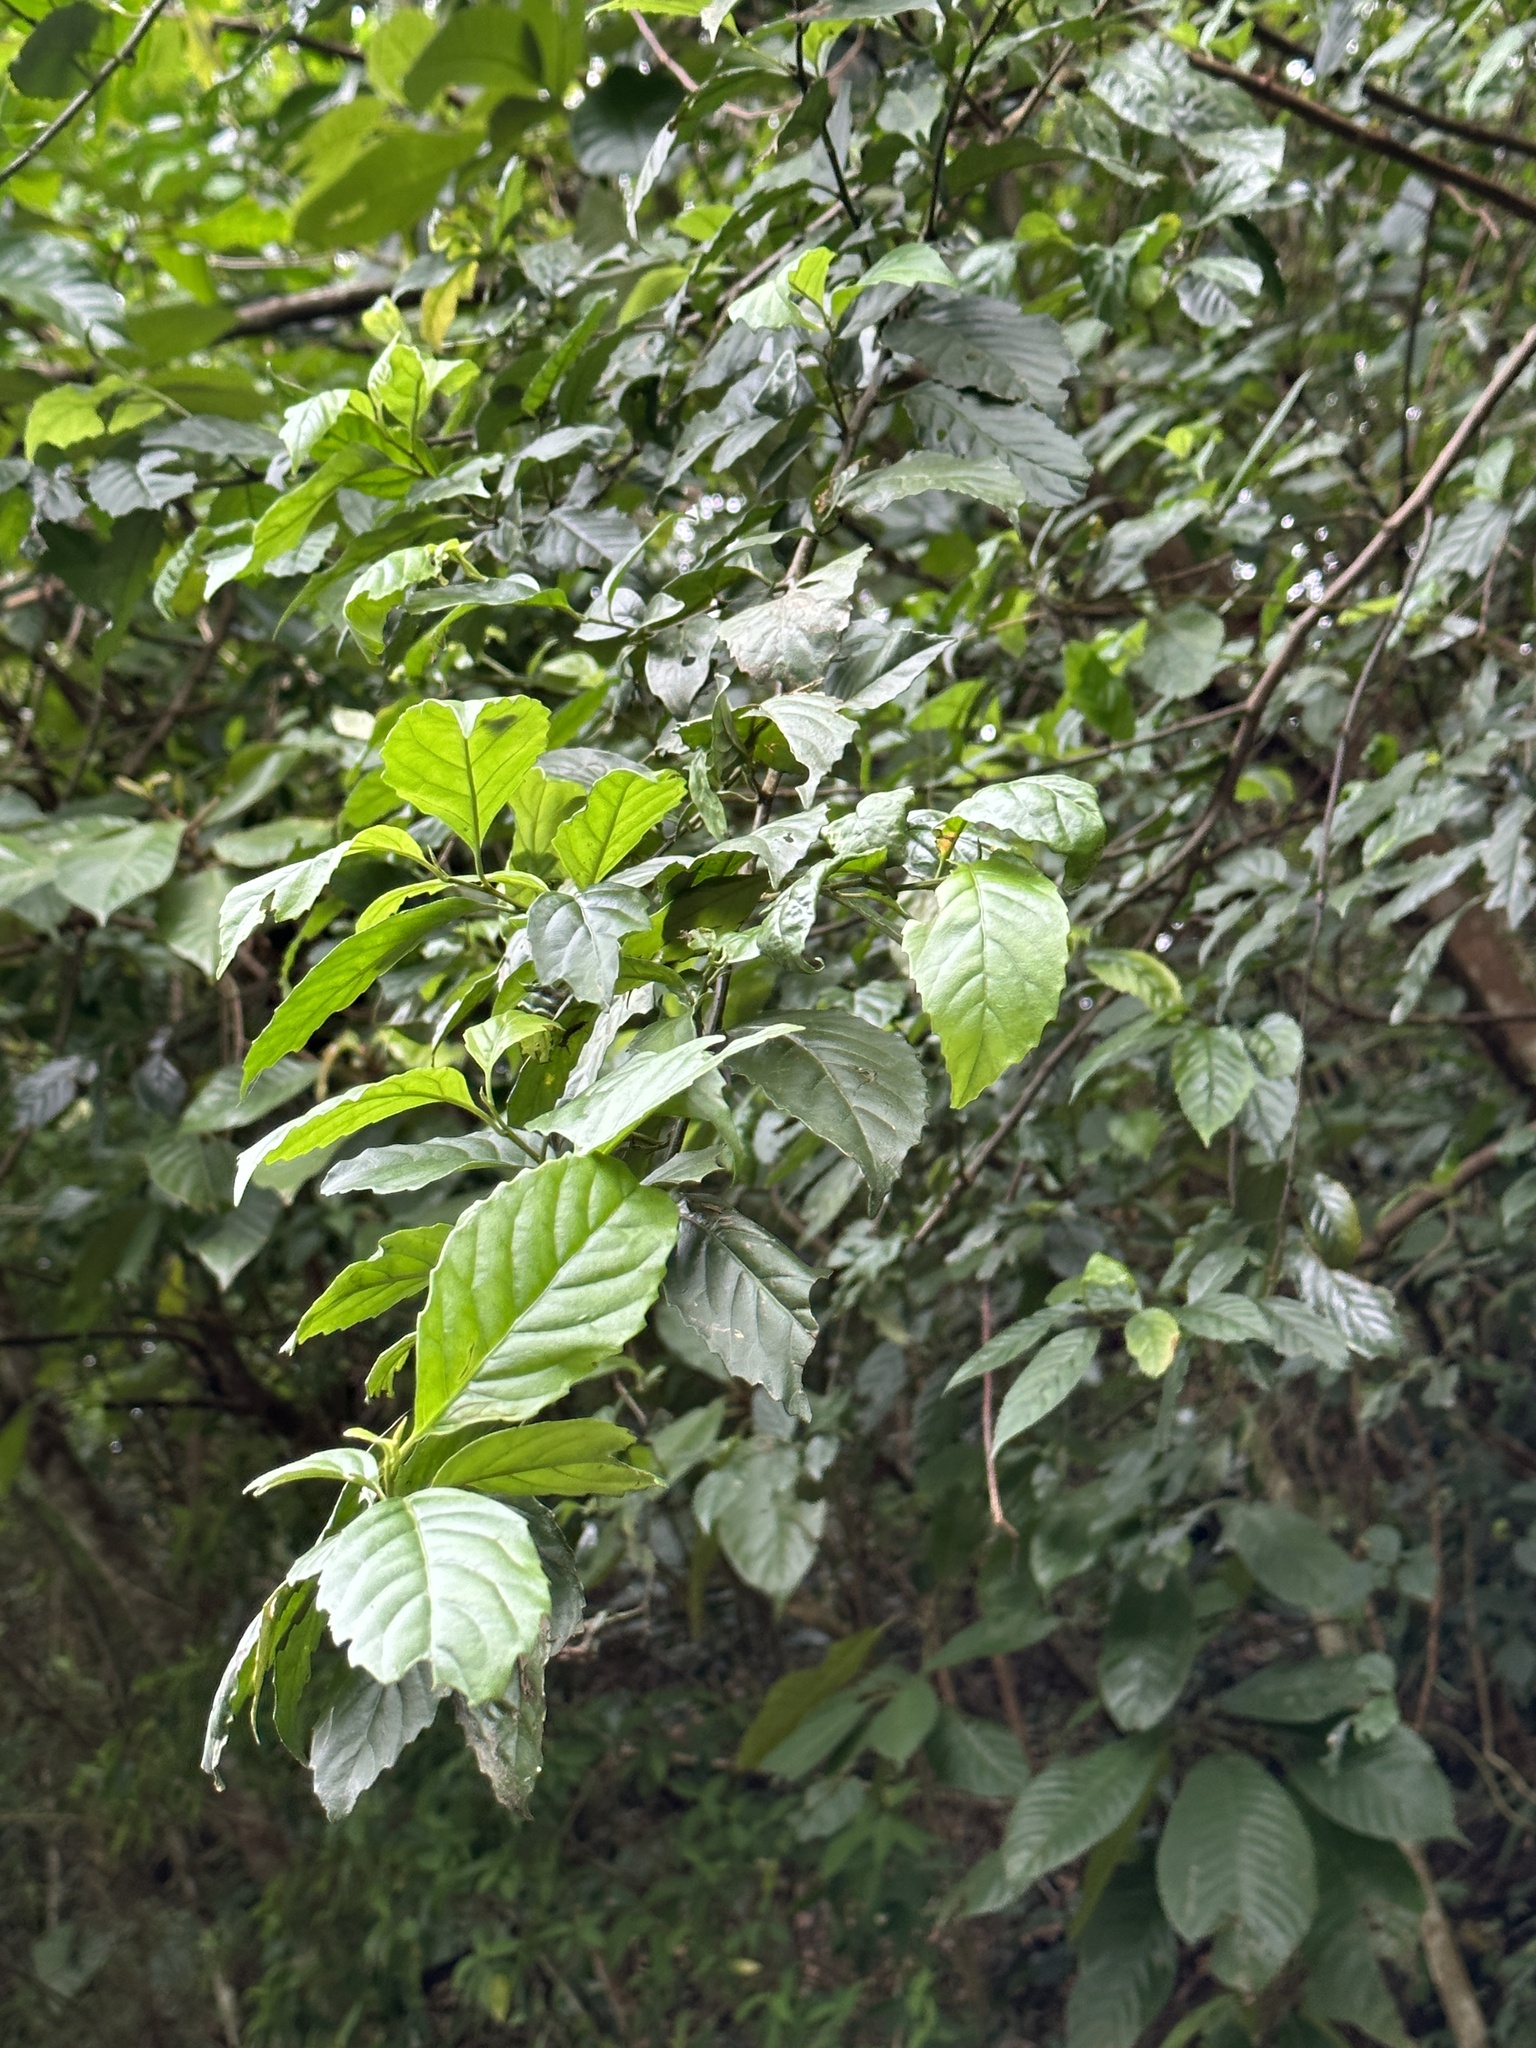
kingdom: Plantae
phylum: Tracheophyta
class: Magnoliopsida
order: Ericales
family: Primulaceae
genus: Maesa
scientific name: Maesa perlaria
